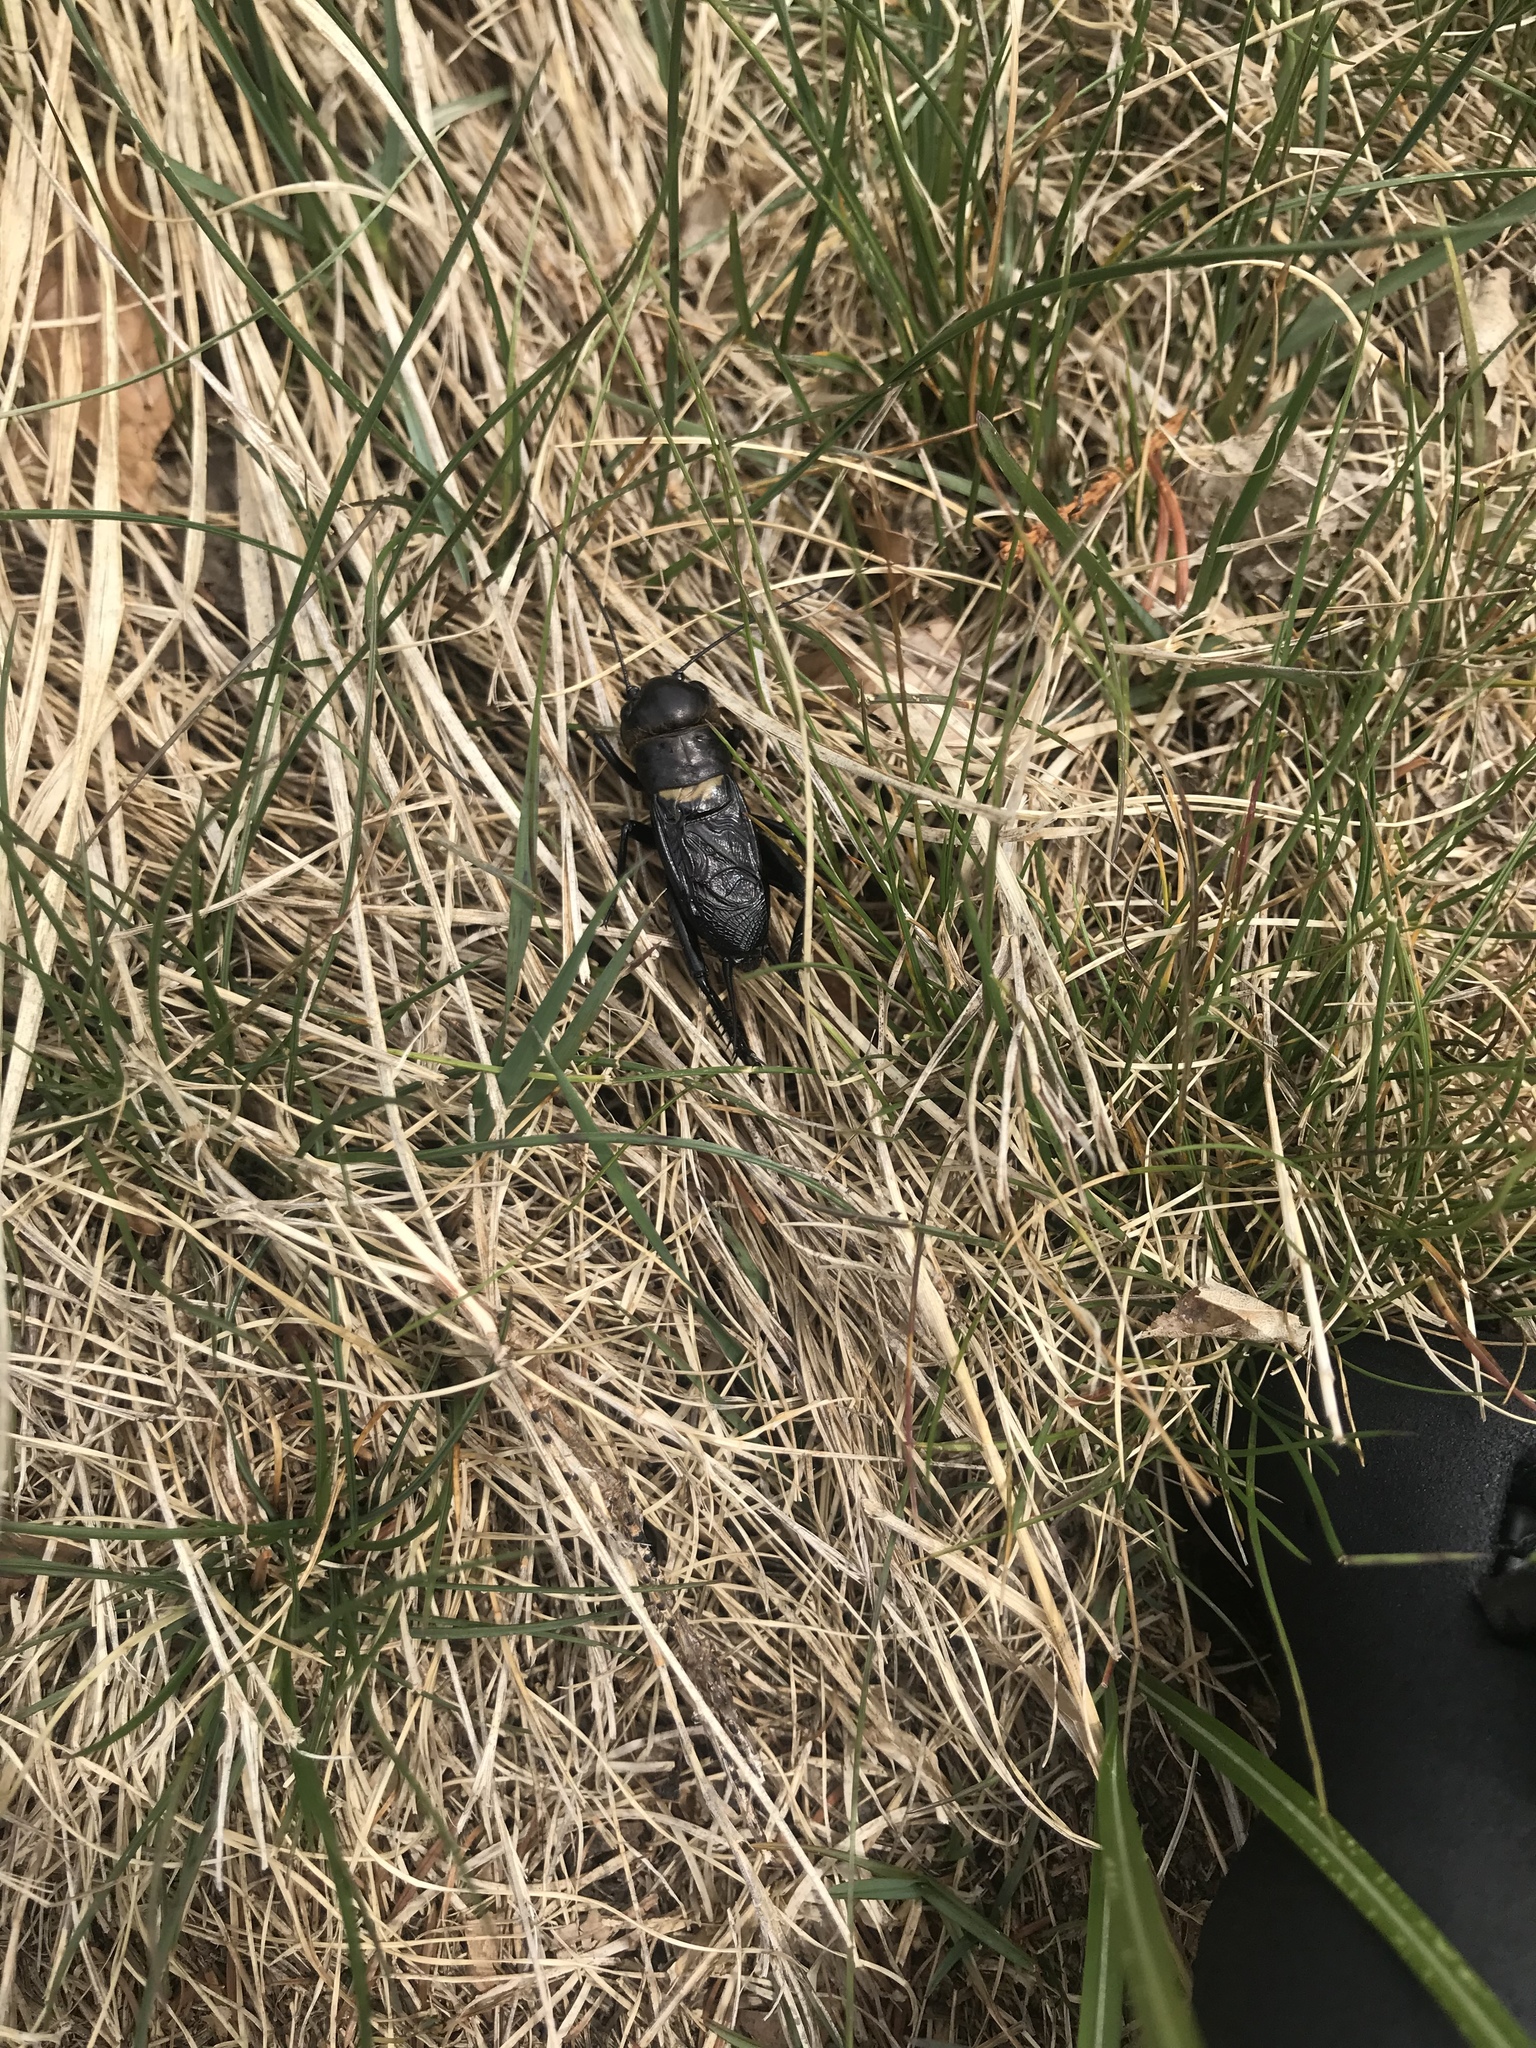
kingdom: Animalia
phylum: Arthropoda
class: Insecta
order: Orthoptera
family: Gryllidae
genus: Gryllus
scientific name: Gryllus campestris
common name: Field cricket
